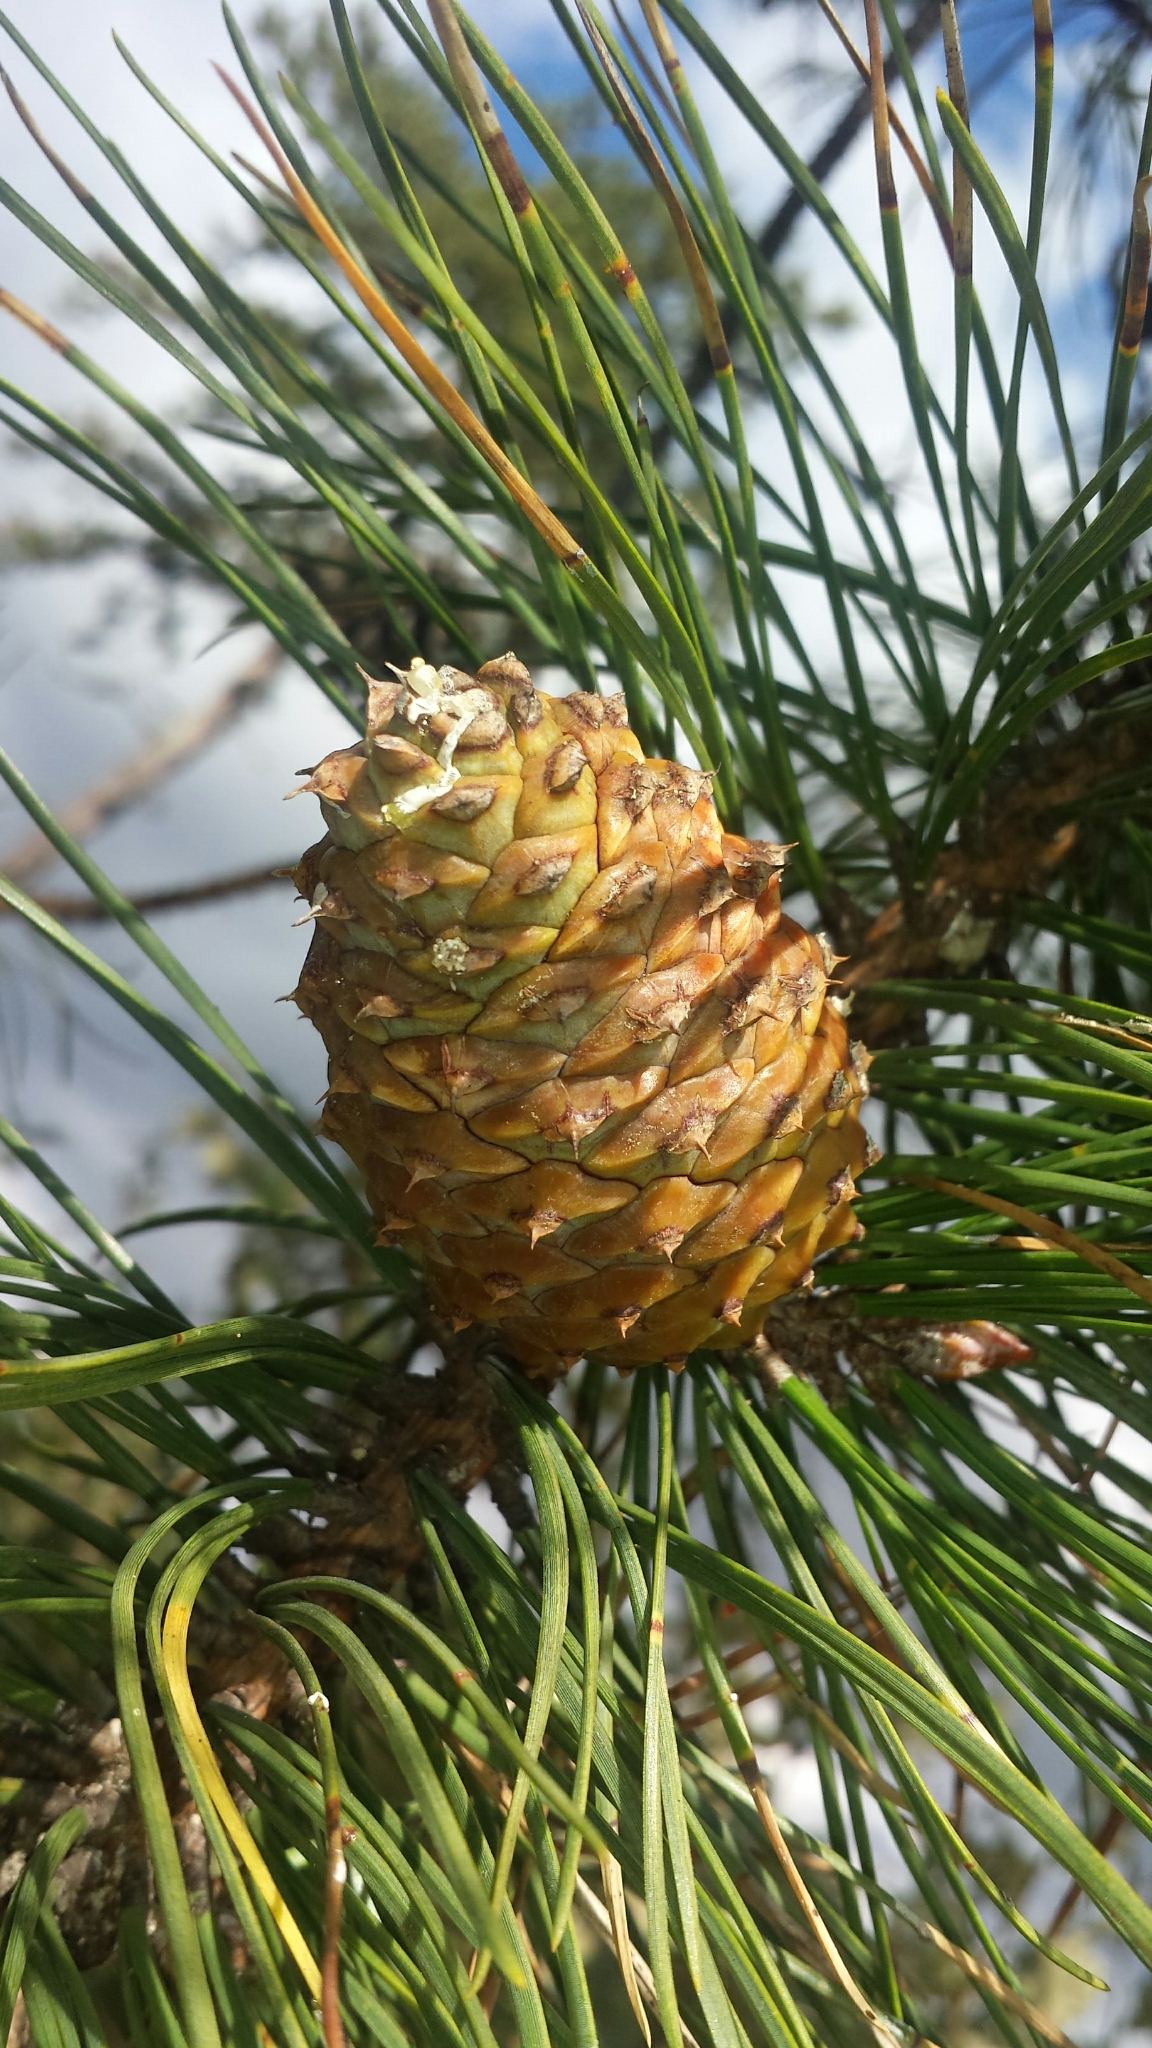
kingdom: Plantae
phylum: Tracheophyta
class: Pinopsida
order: Pinales
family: Pinaceae
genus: Pinus
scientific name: Pinus rigida
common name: Pitch pine
